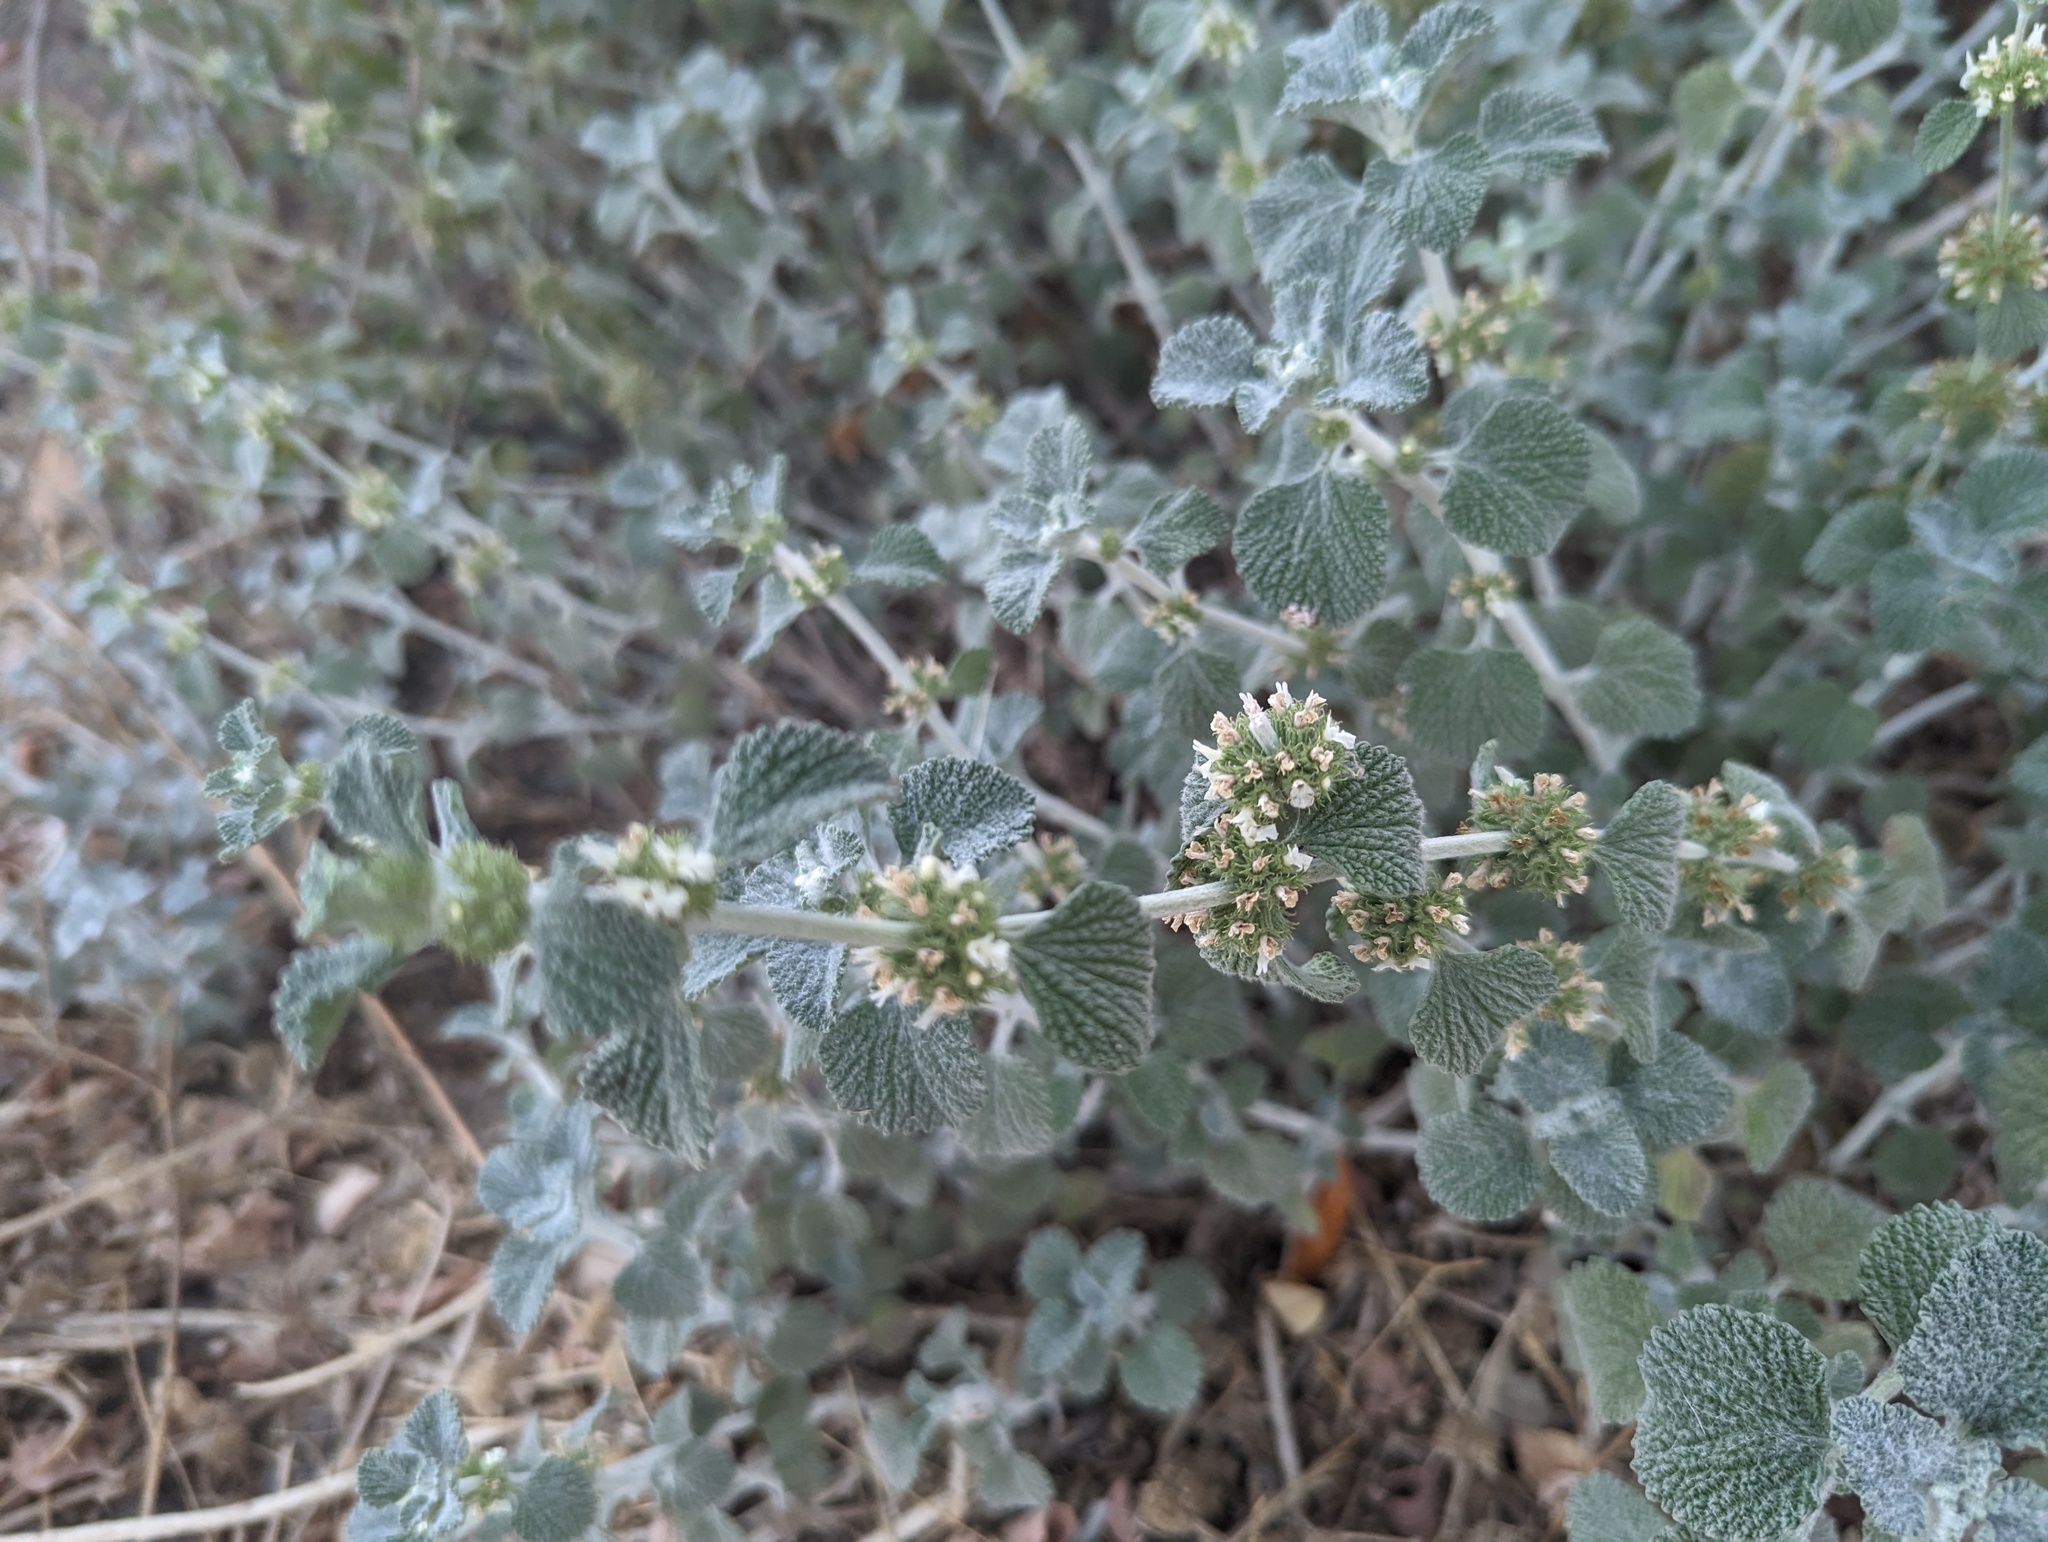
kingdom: Plantae
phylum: Tracheophyta
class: Magnoliopsida
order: Lamiales
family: Lamiaceae
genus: Marrubium
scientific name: Marrubium vulgare
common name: Horehound
